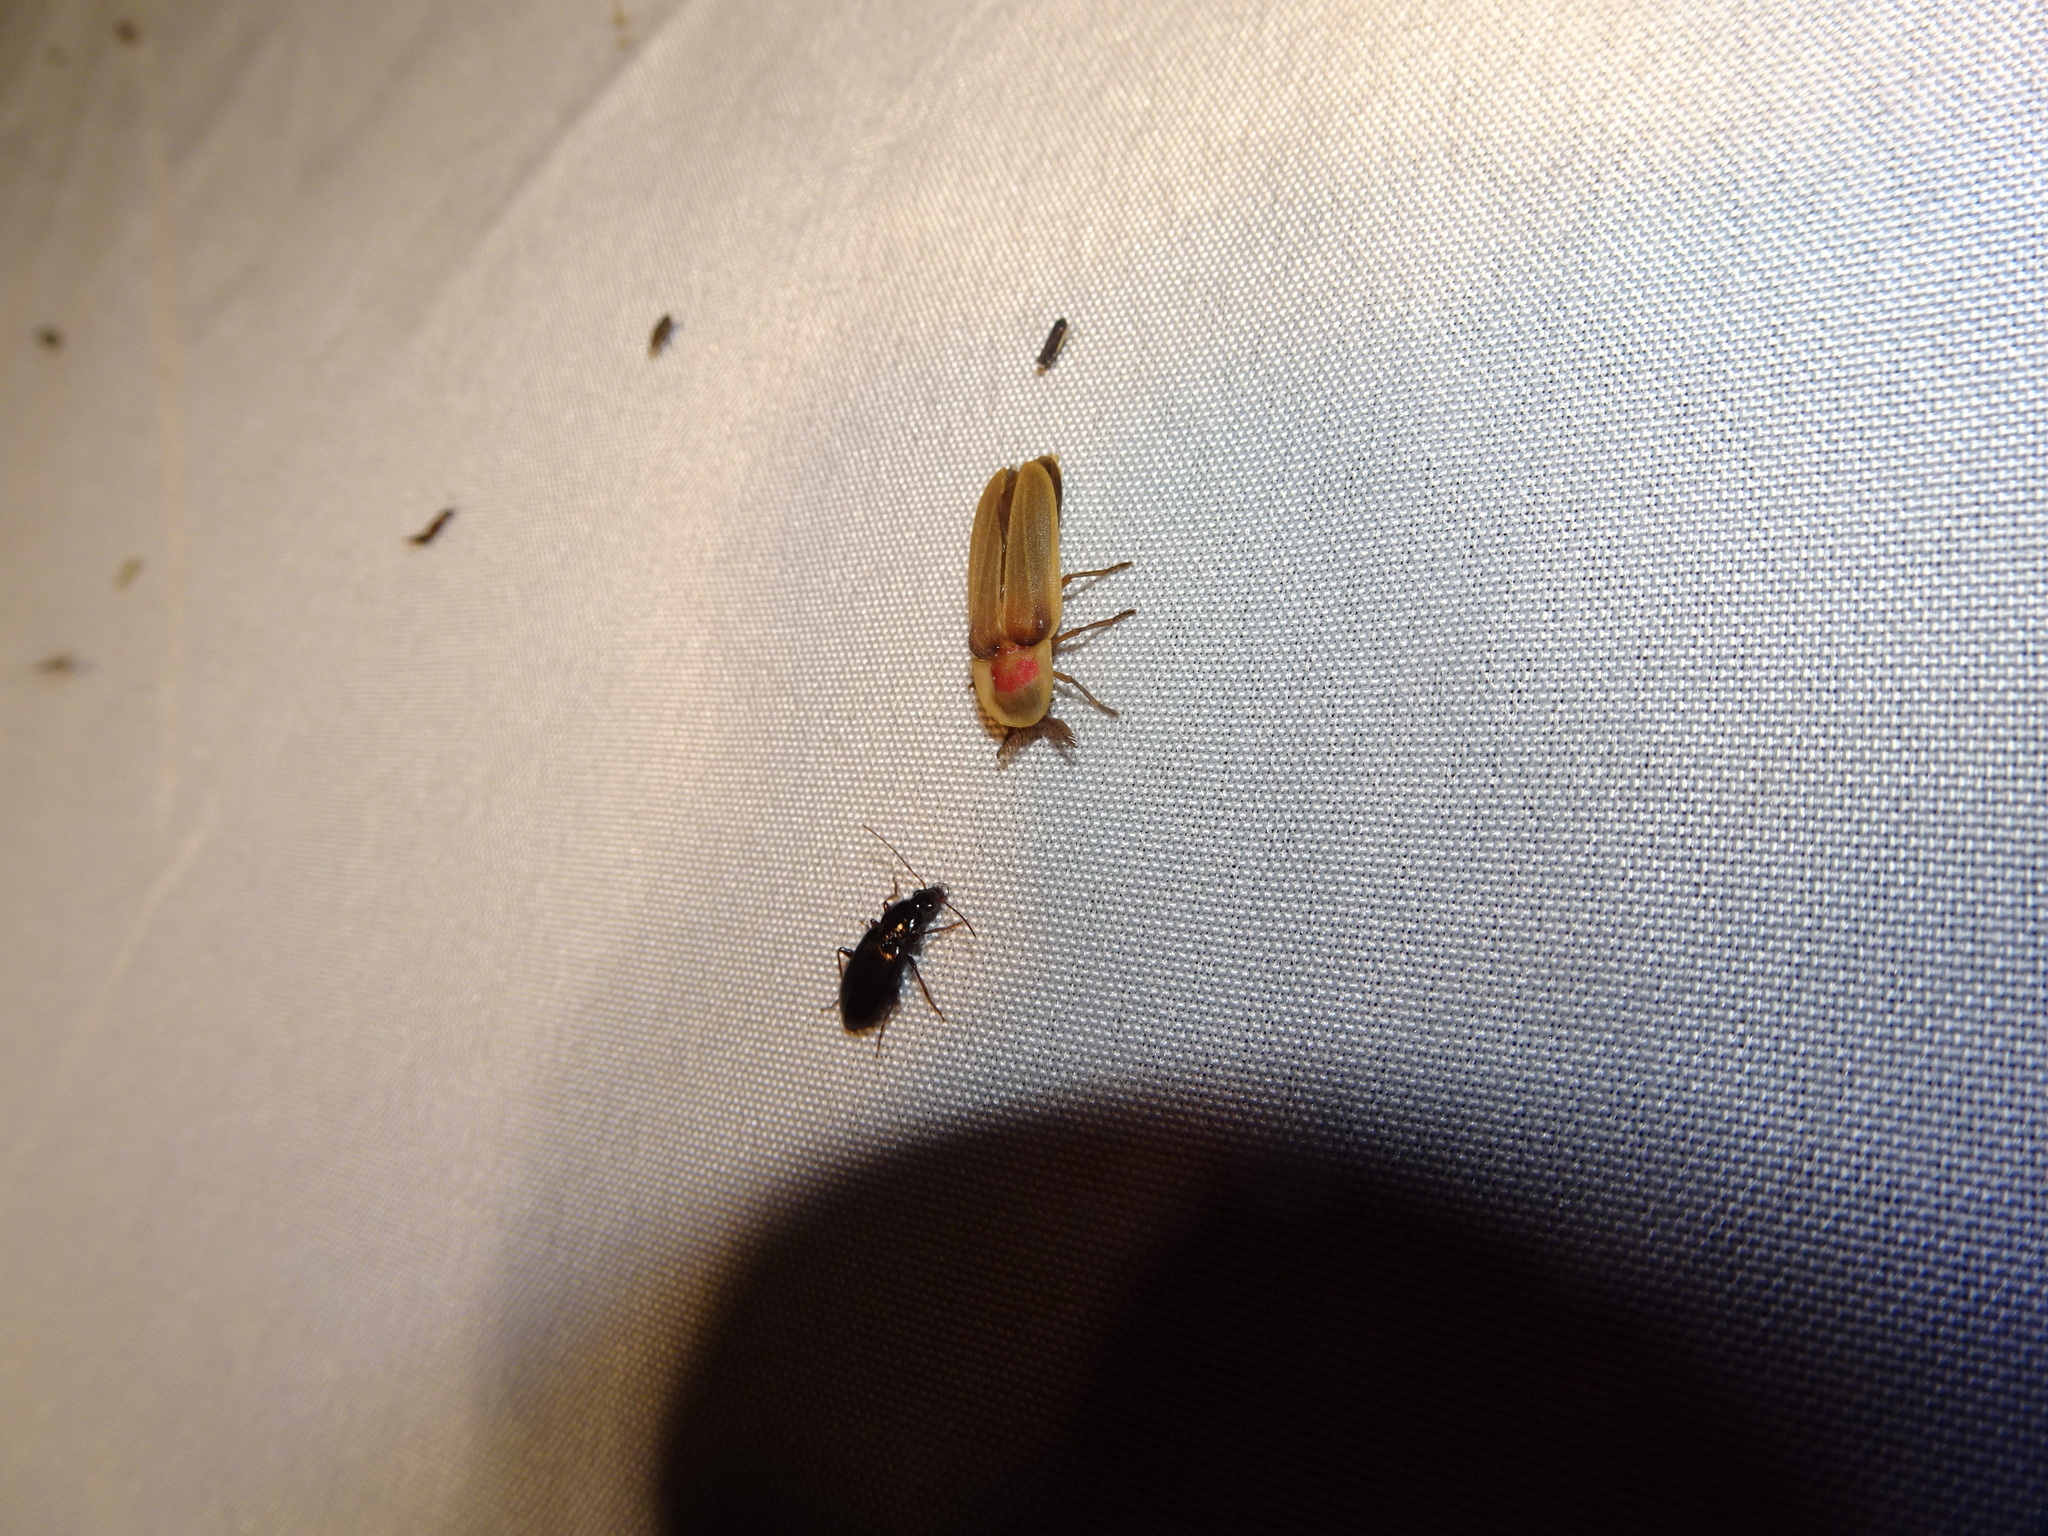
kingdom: Animalia
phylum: Arthropoda
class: Insecta
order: Coleoptera
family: Lampyridae
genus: Pleotomus
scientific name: Pleotomus pallens
